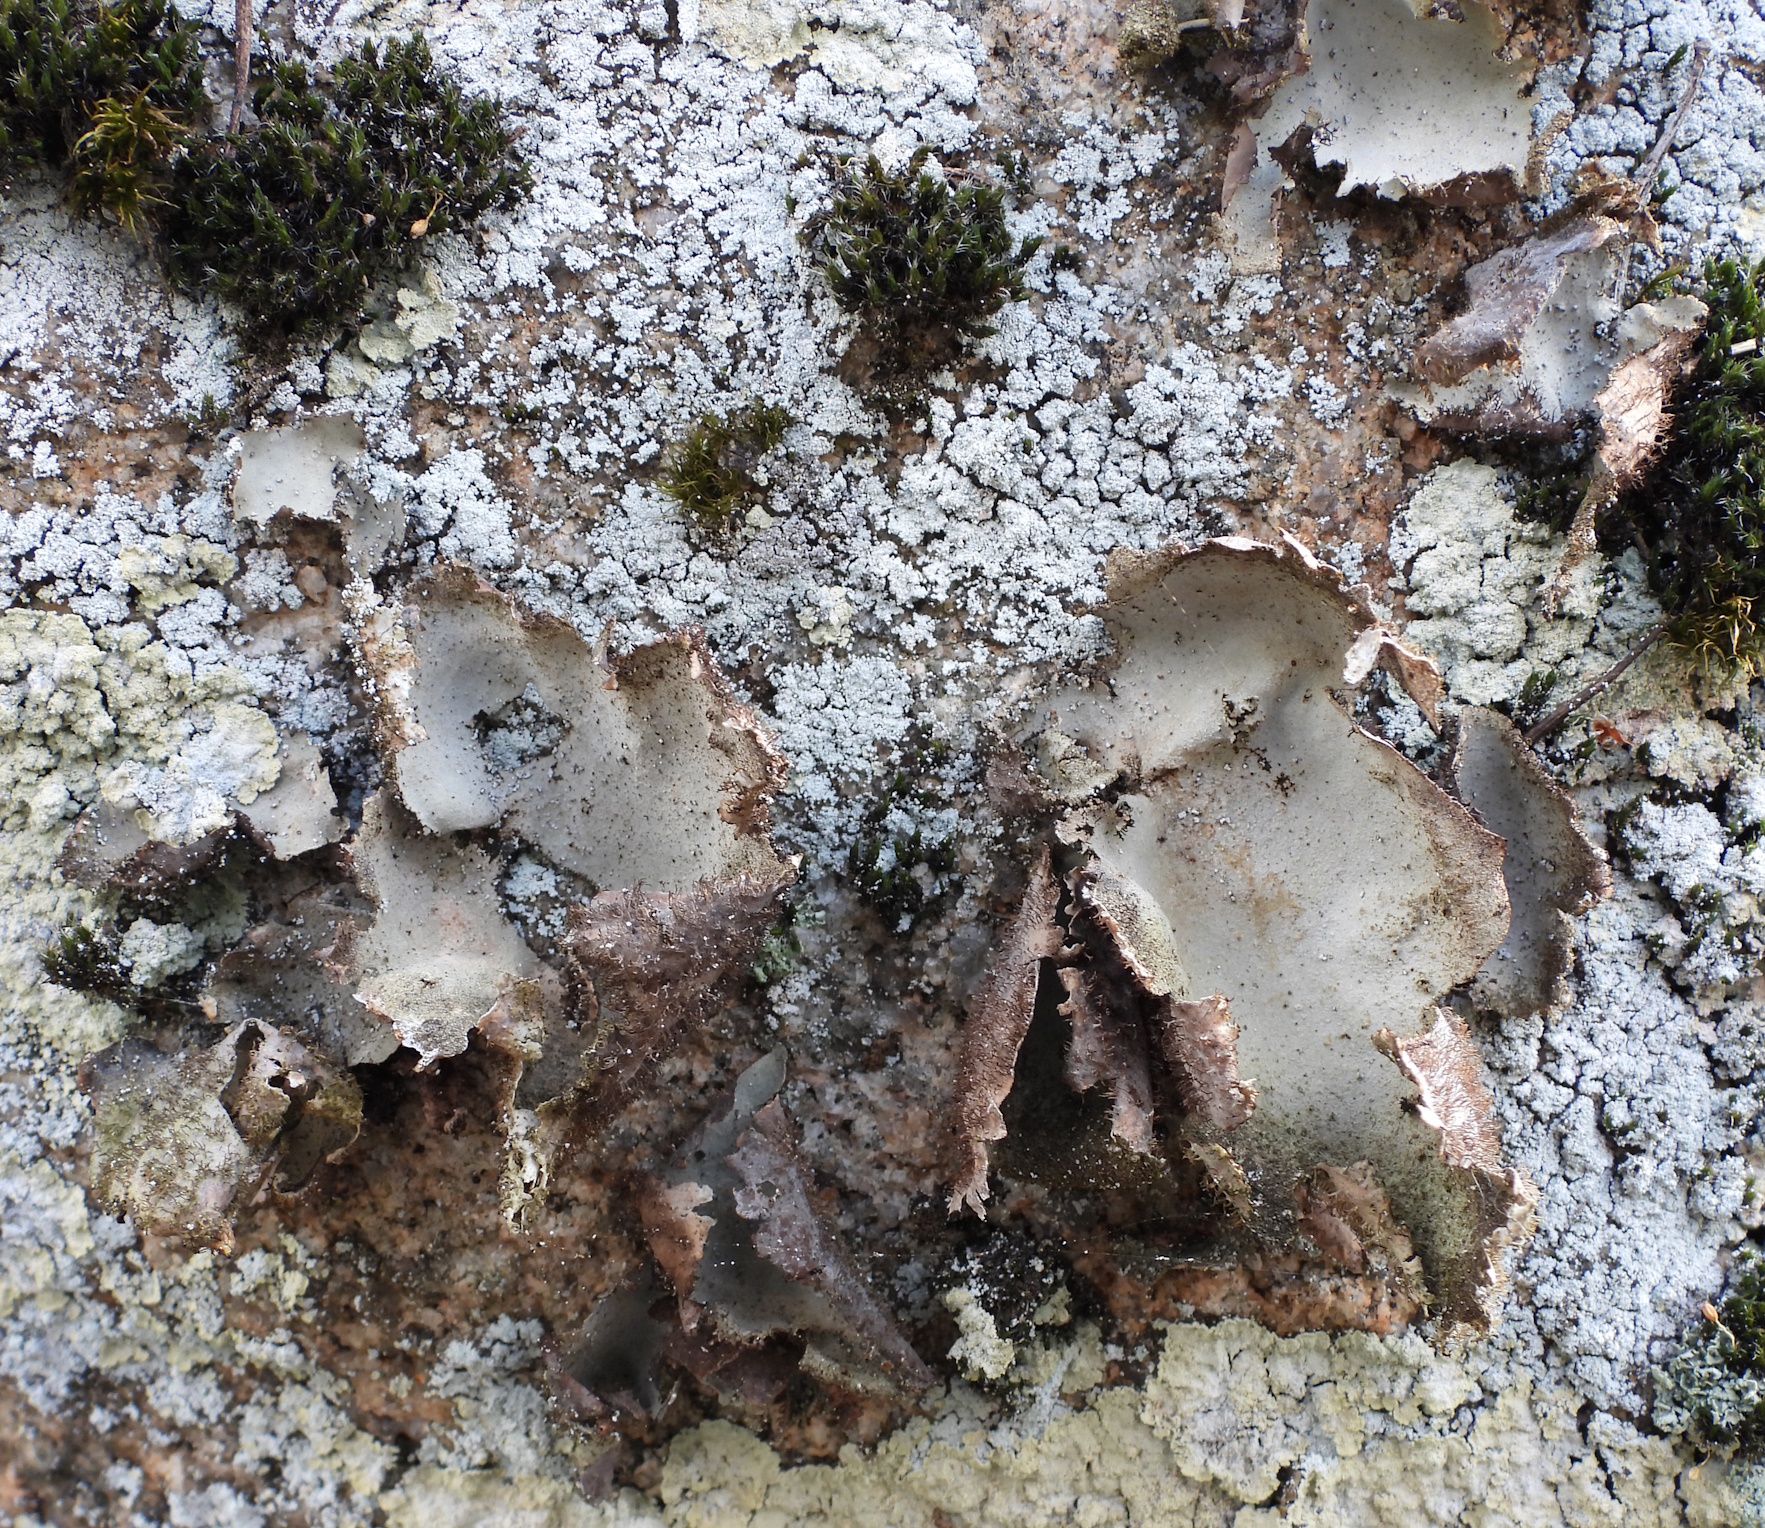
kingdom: Fungi
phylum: Ascomycota
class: Lecanoromycetes
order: Umbilicariales
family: Umbilicariaceae
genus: Umbilicaria
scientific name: Umbilicaria hirsuta
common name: Granulating rocktripe lichen
